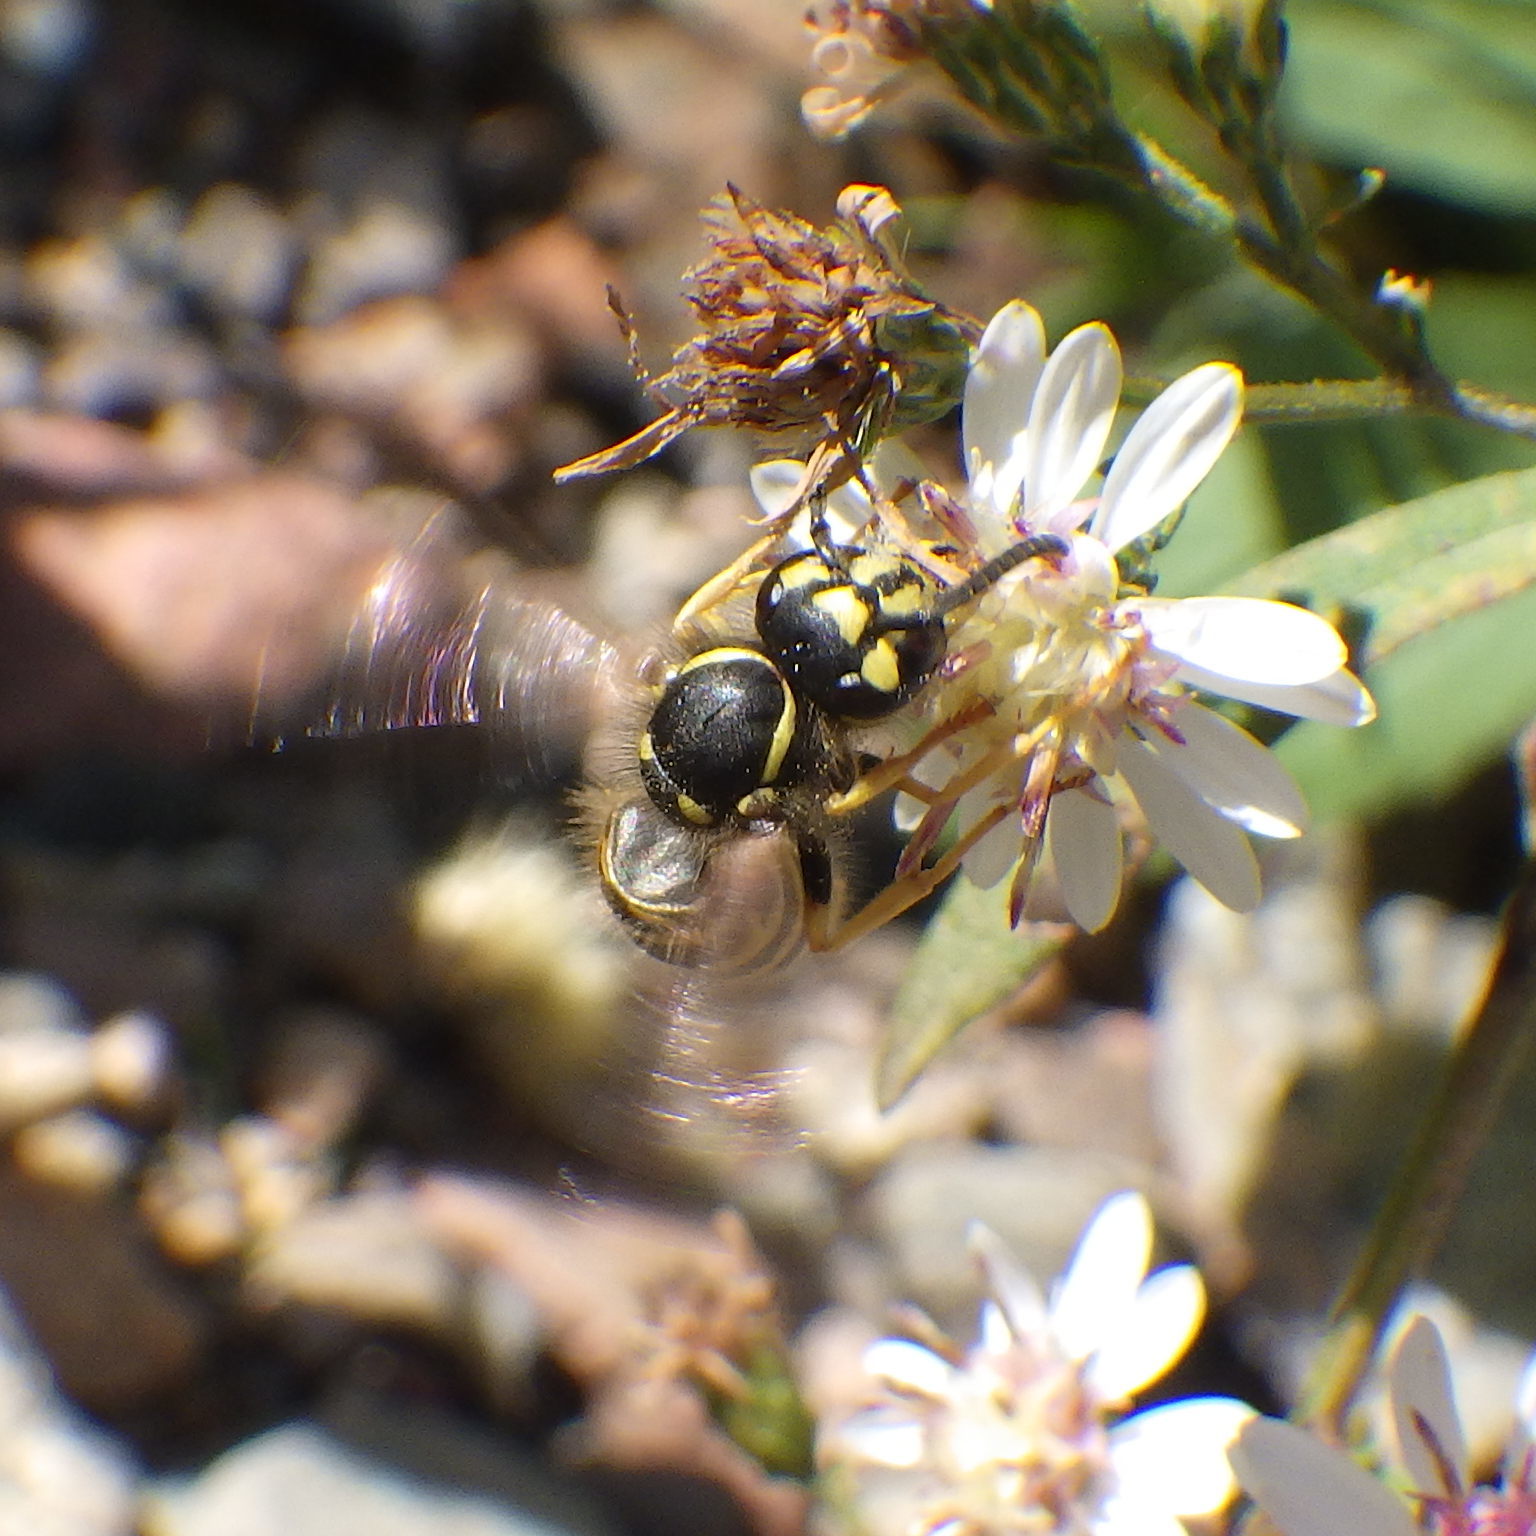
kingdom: Animalia
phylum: Arthropoda
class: Insecta
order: Hymenoptera
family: Vespidae
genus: Vespula
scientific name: Vespula maculifrons
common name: Eastern yellowjacket
